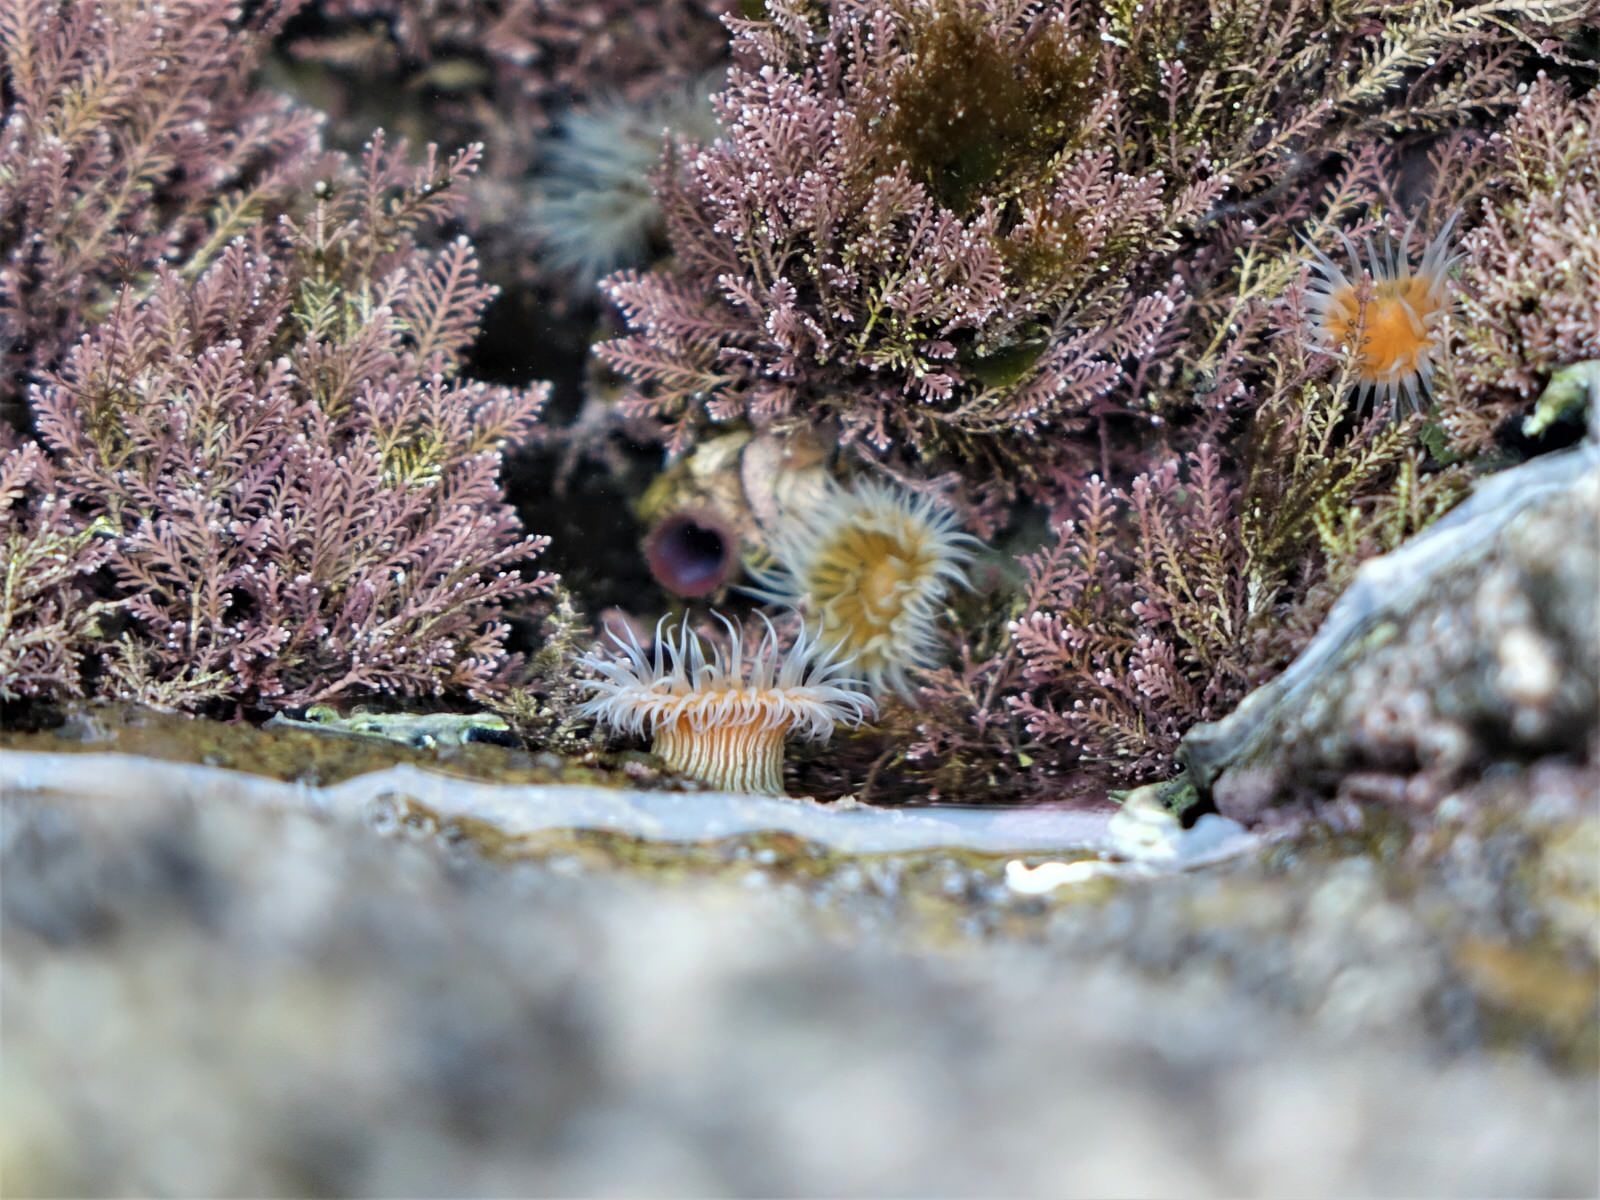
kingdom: Animalia
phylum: Cnidaria
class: Anthozoa
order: Actiniaria
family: Sagartiidae
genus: Anthothoe
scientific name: Anthothoe albocincta
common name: Orange striped anemone
